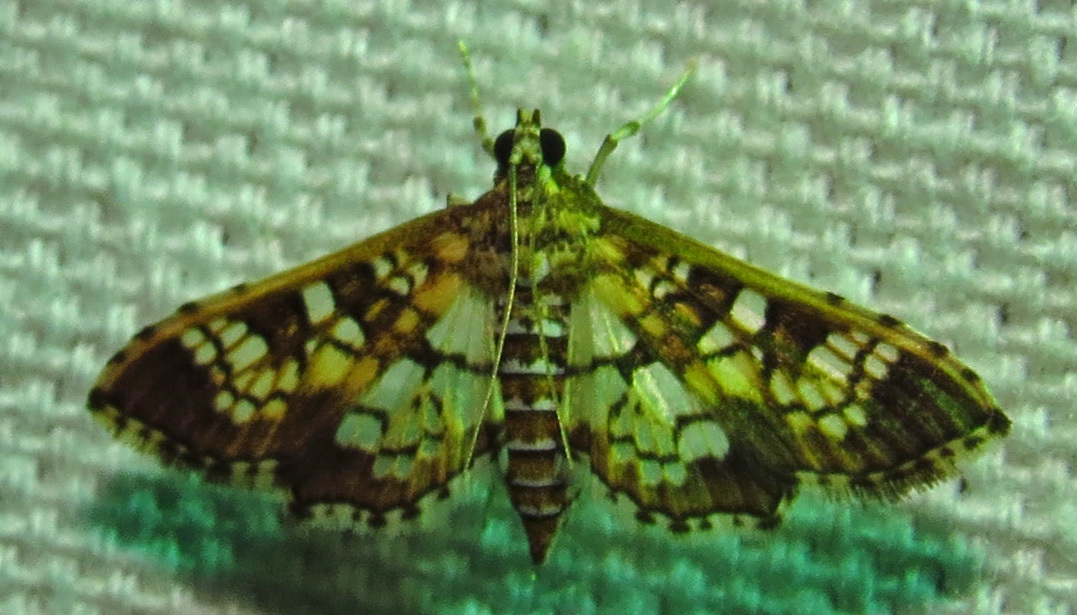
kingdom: Animalia
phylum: Arthropoda
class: Insecta
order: Lepidoptera
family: Crambidae
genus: Samea
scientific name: Samea ecclesialis
